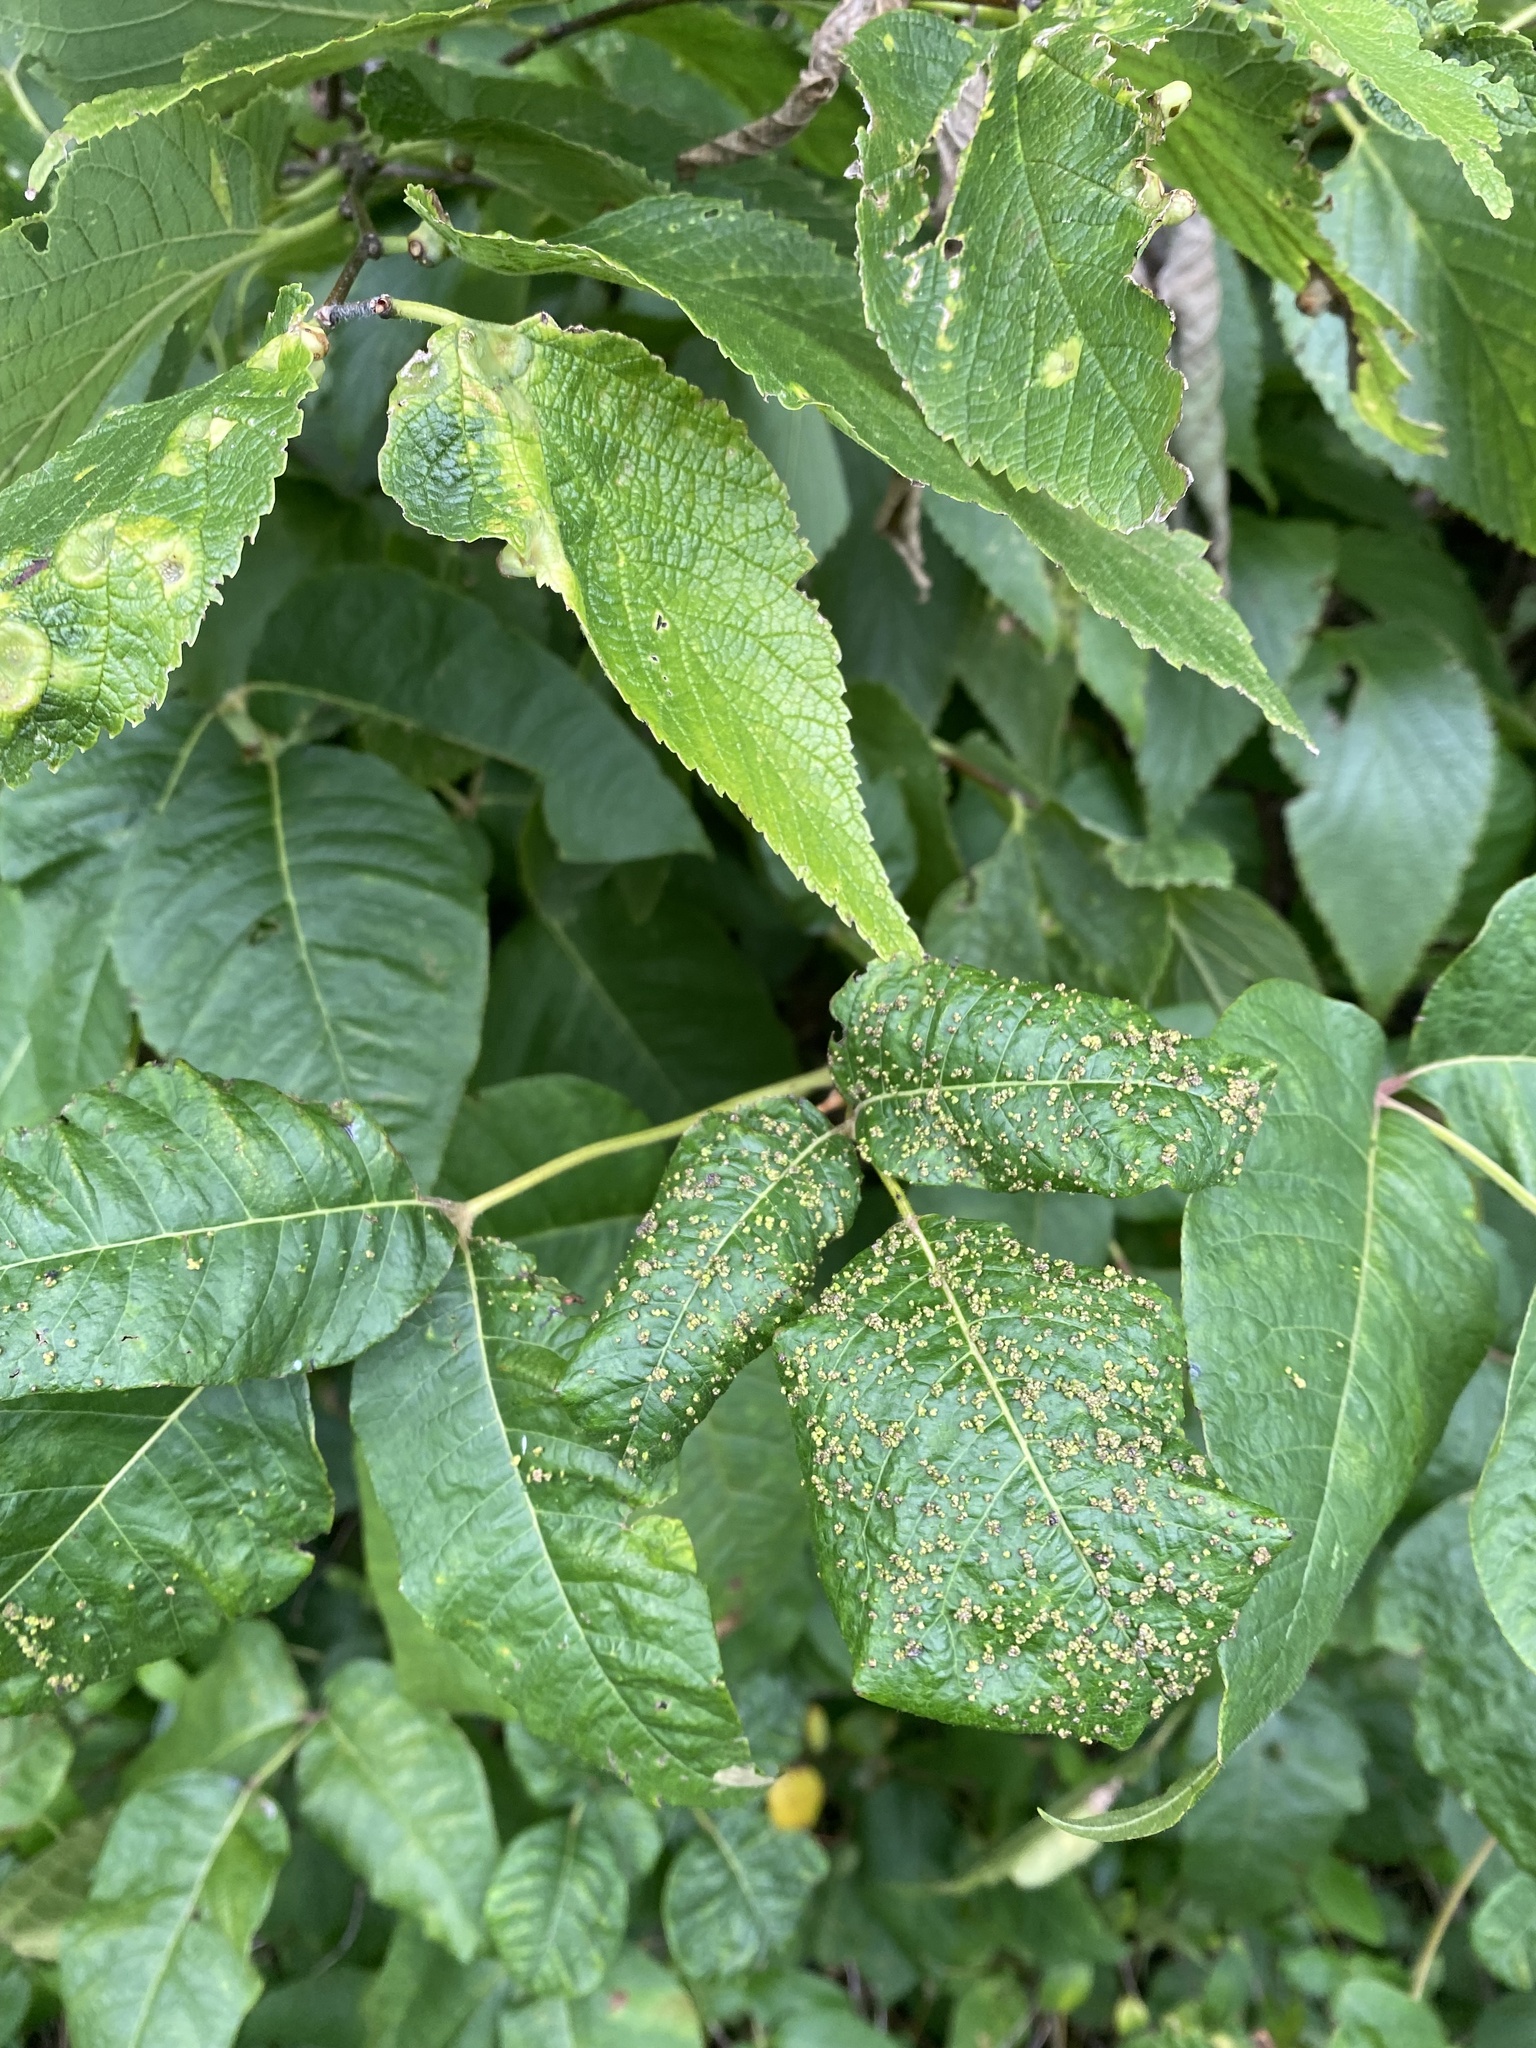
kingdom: Animalia
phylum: Arthropoda
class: Arachnida
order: Trombidiformes
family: Eriophyidae
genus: Aculops
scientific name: Aculops
